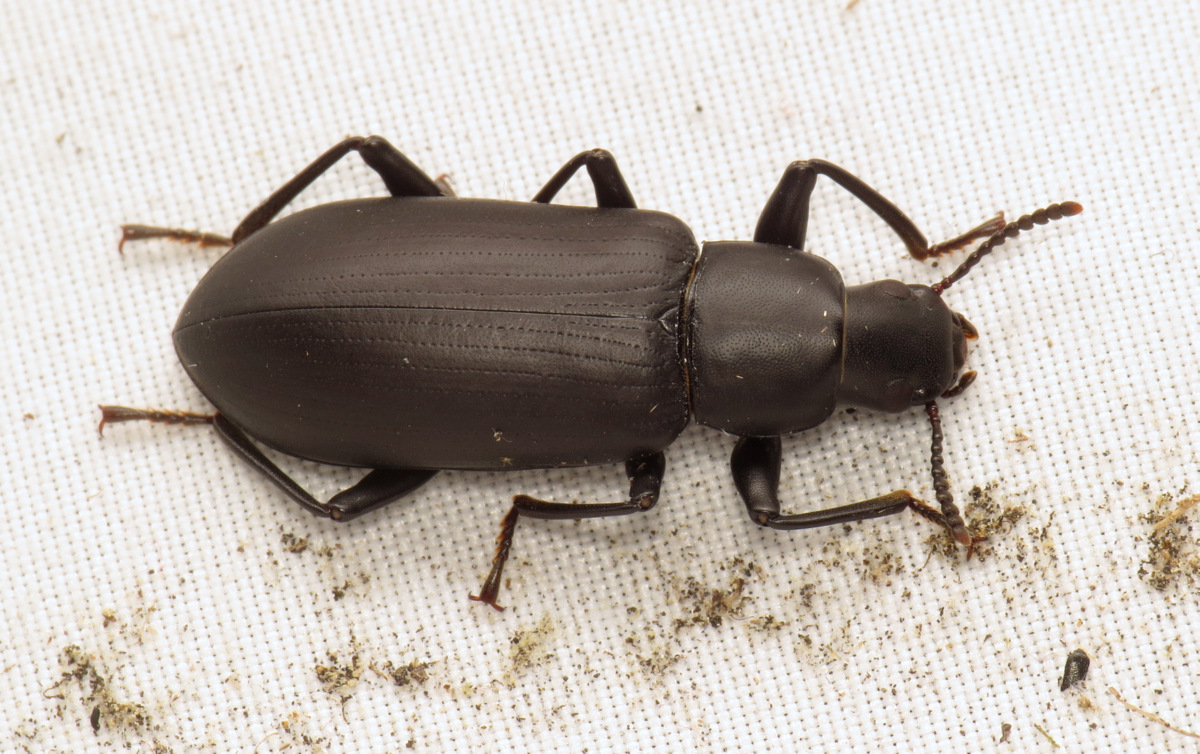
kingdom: Animalia
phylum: Arthropoda
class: Insecta
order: Coleoptera
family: Tenebrionidae
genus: Alobates
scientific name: Alobates pensylvanicus
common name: False mealworm beetle
